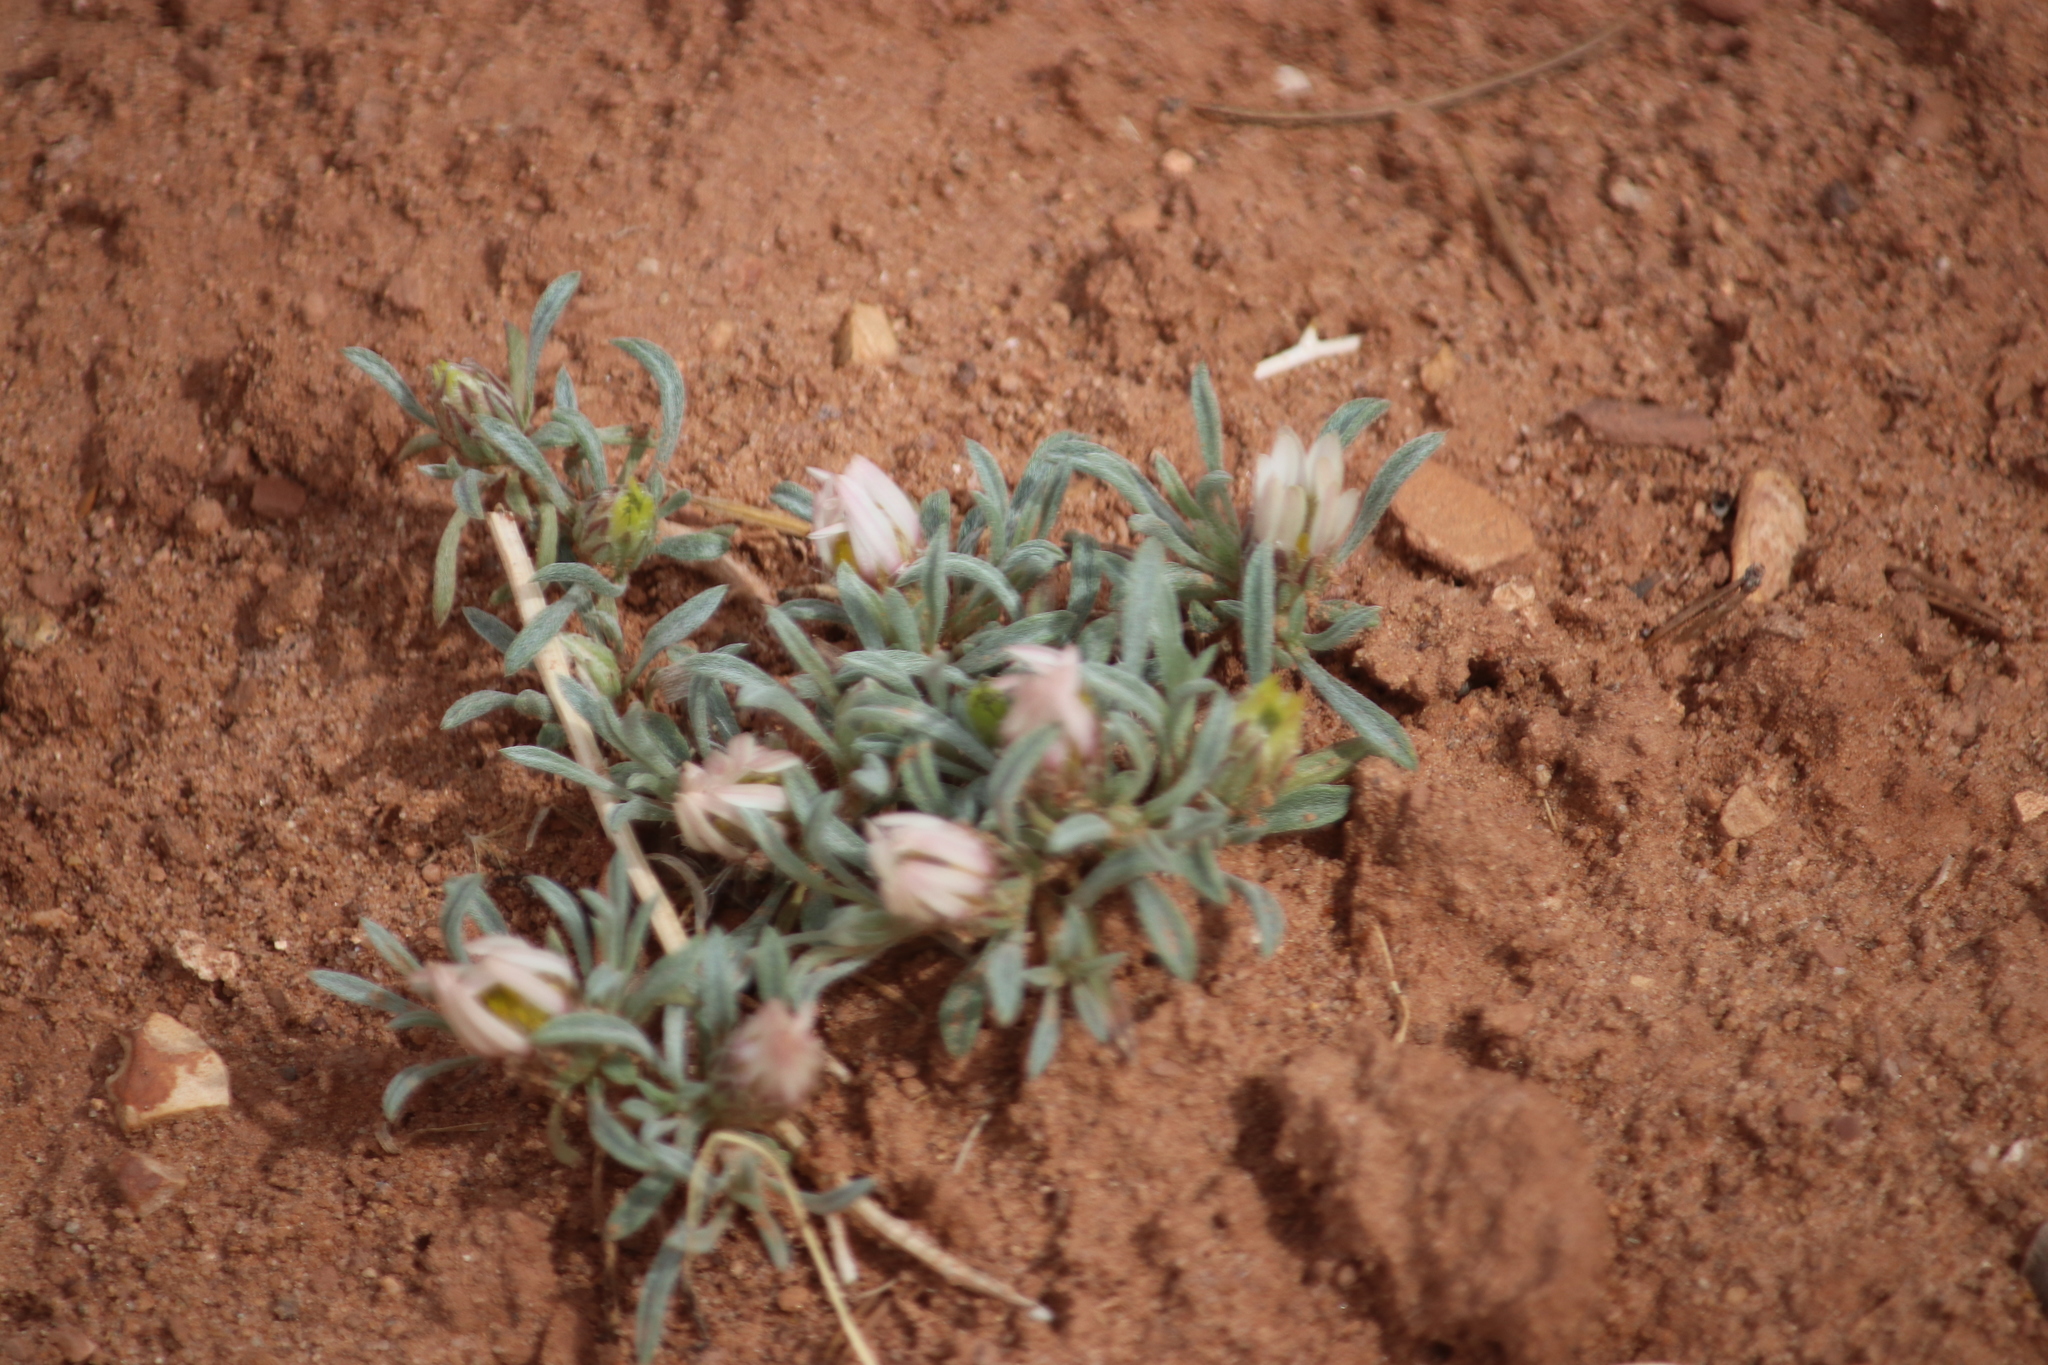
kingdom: Plantae
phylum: Tracheophyta
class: Magnoliopsida
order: Asterales
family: Asteraceae
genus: Townsendia
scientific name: Townsendia incana
